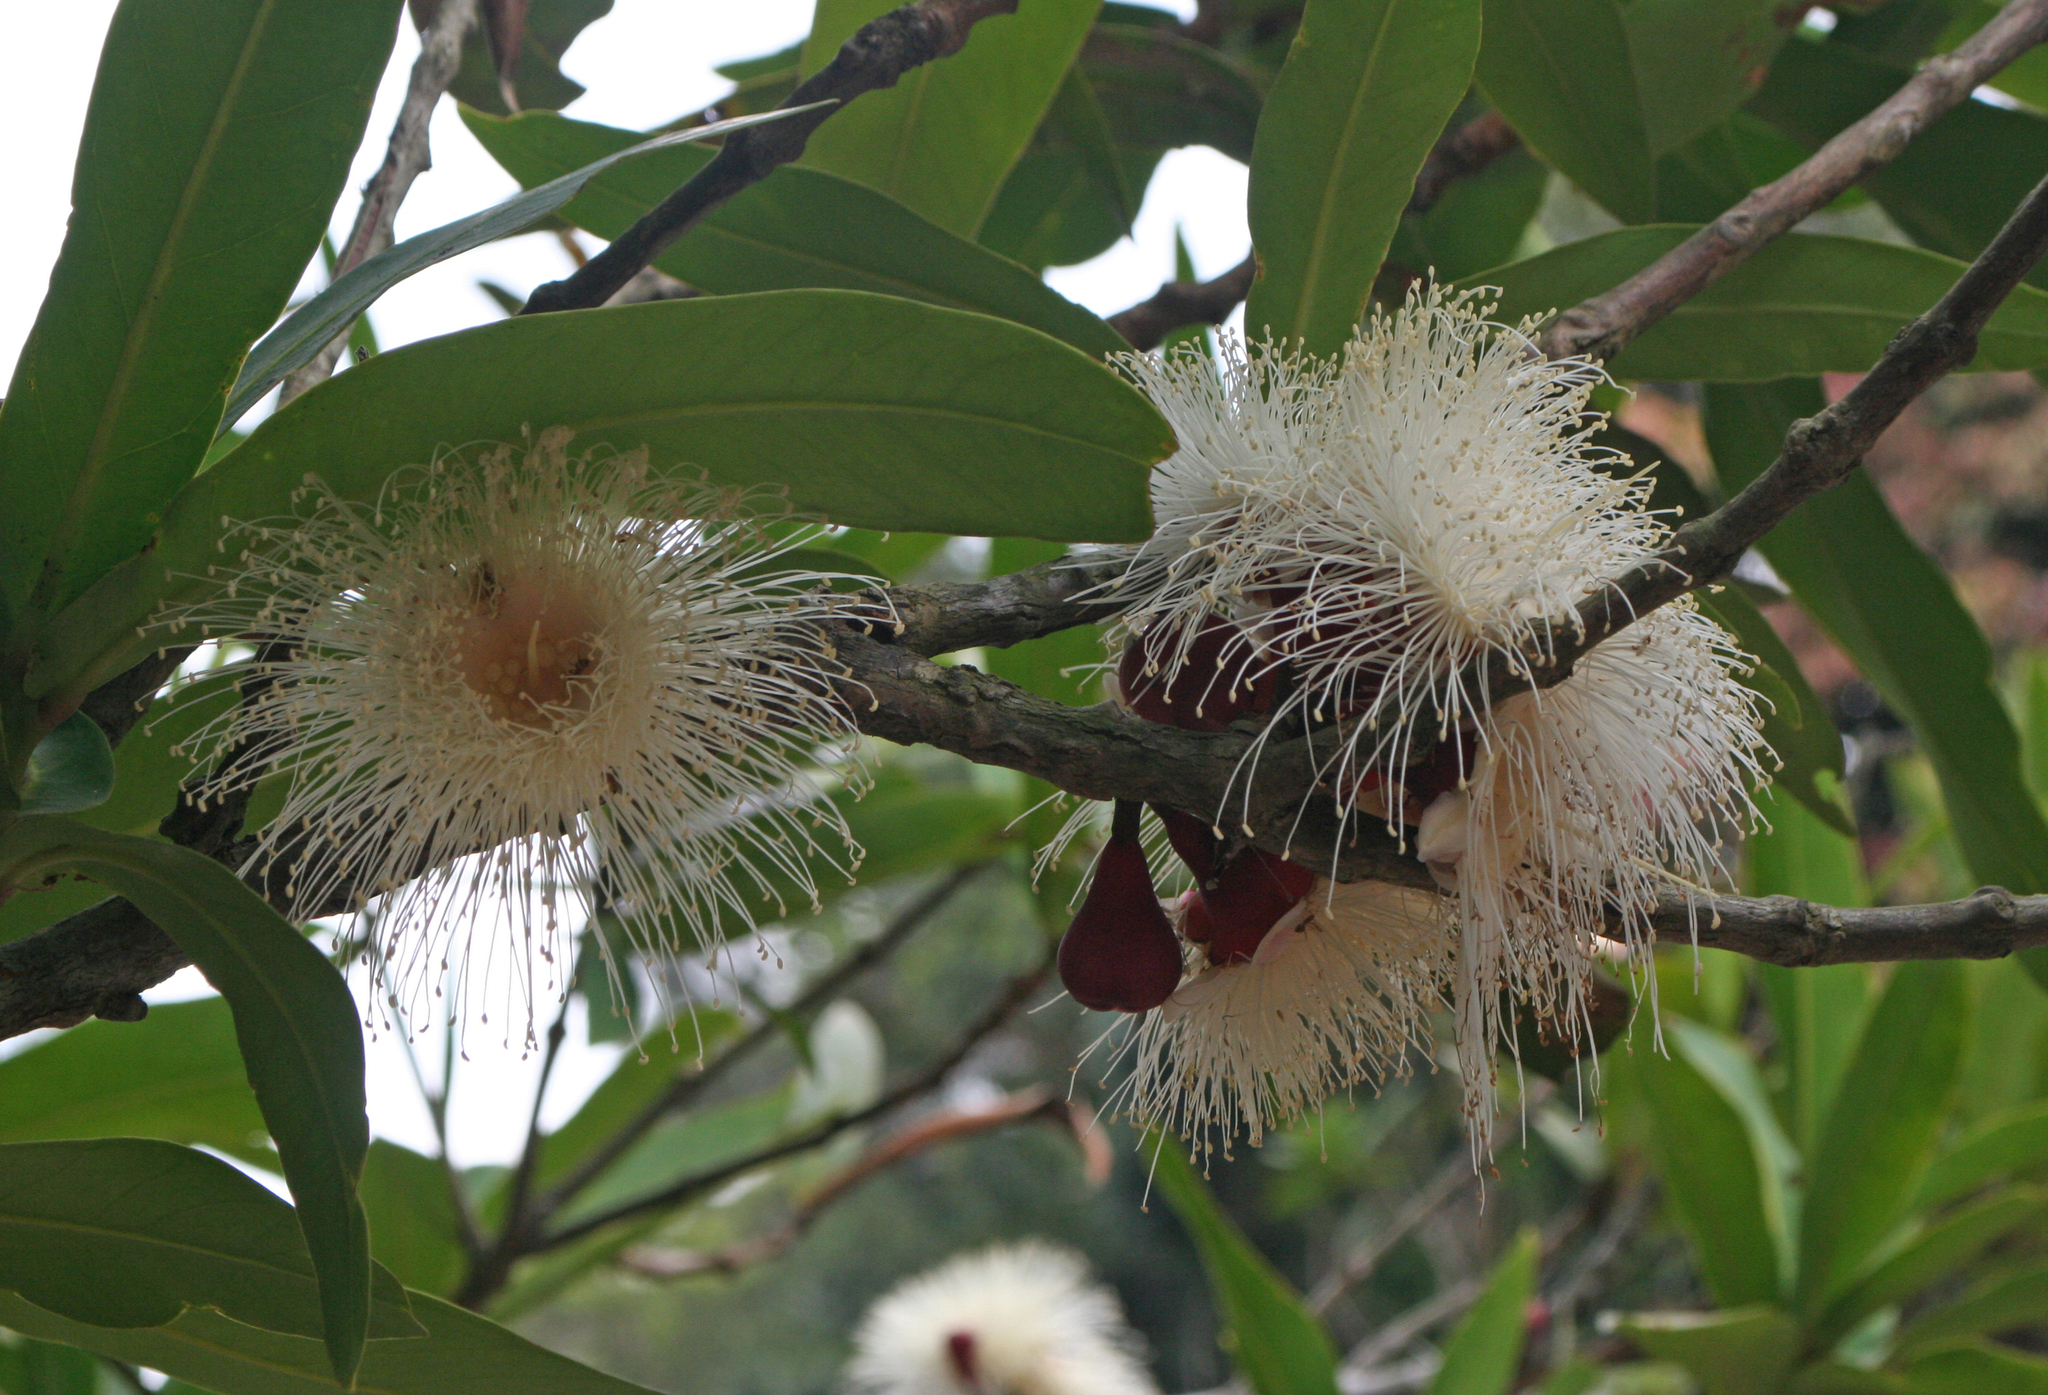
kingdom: Plantae
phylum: Tracheophyta
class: Magnoliopsida
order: Myrtales
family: Myrtaceae
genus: Syzygium
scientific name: Syzygium samarangense
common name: Semarang rose-apple
